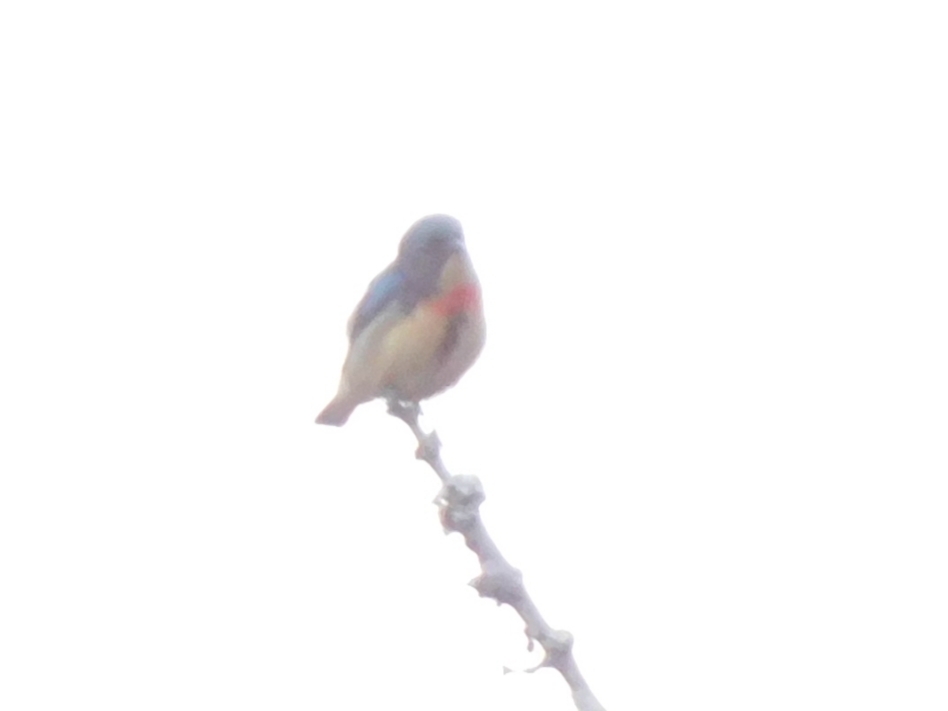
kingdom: Animalia
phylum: Chordata
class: Aves
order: Passeriformes
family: Dicaeidae
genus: Dicaeum
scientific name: Dicaeum ignipectus
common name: Fire-breasted flowerpecker
